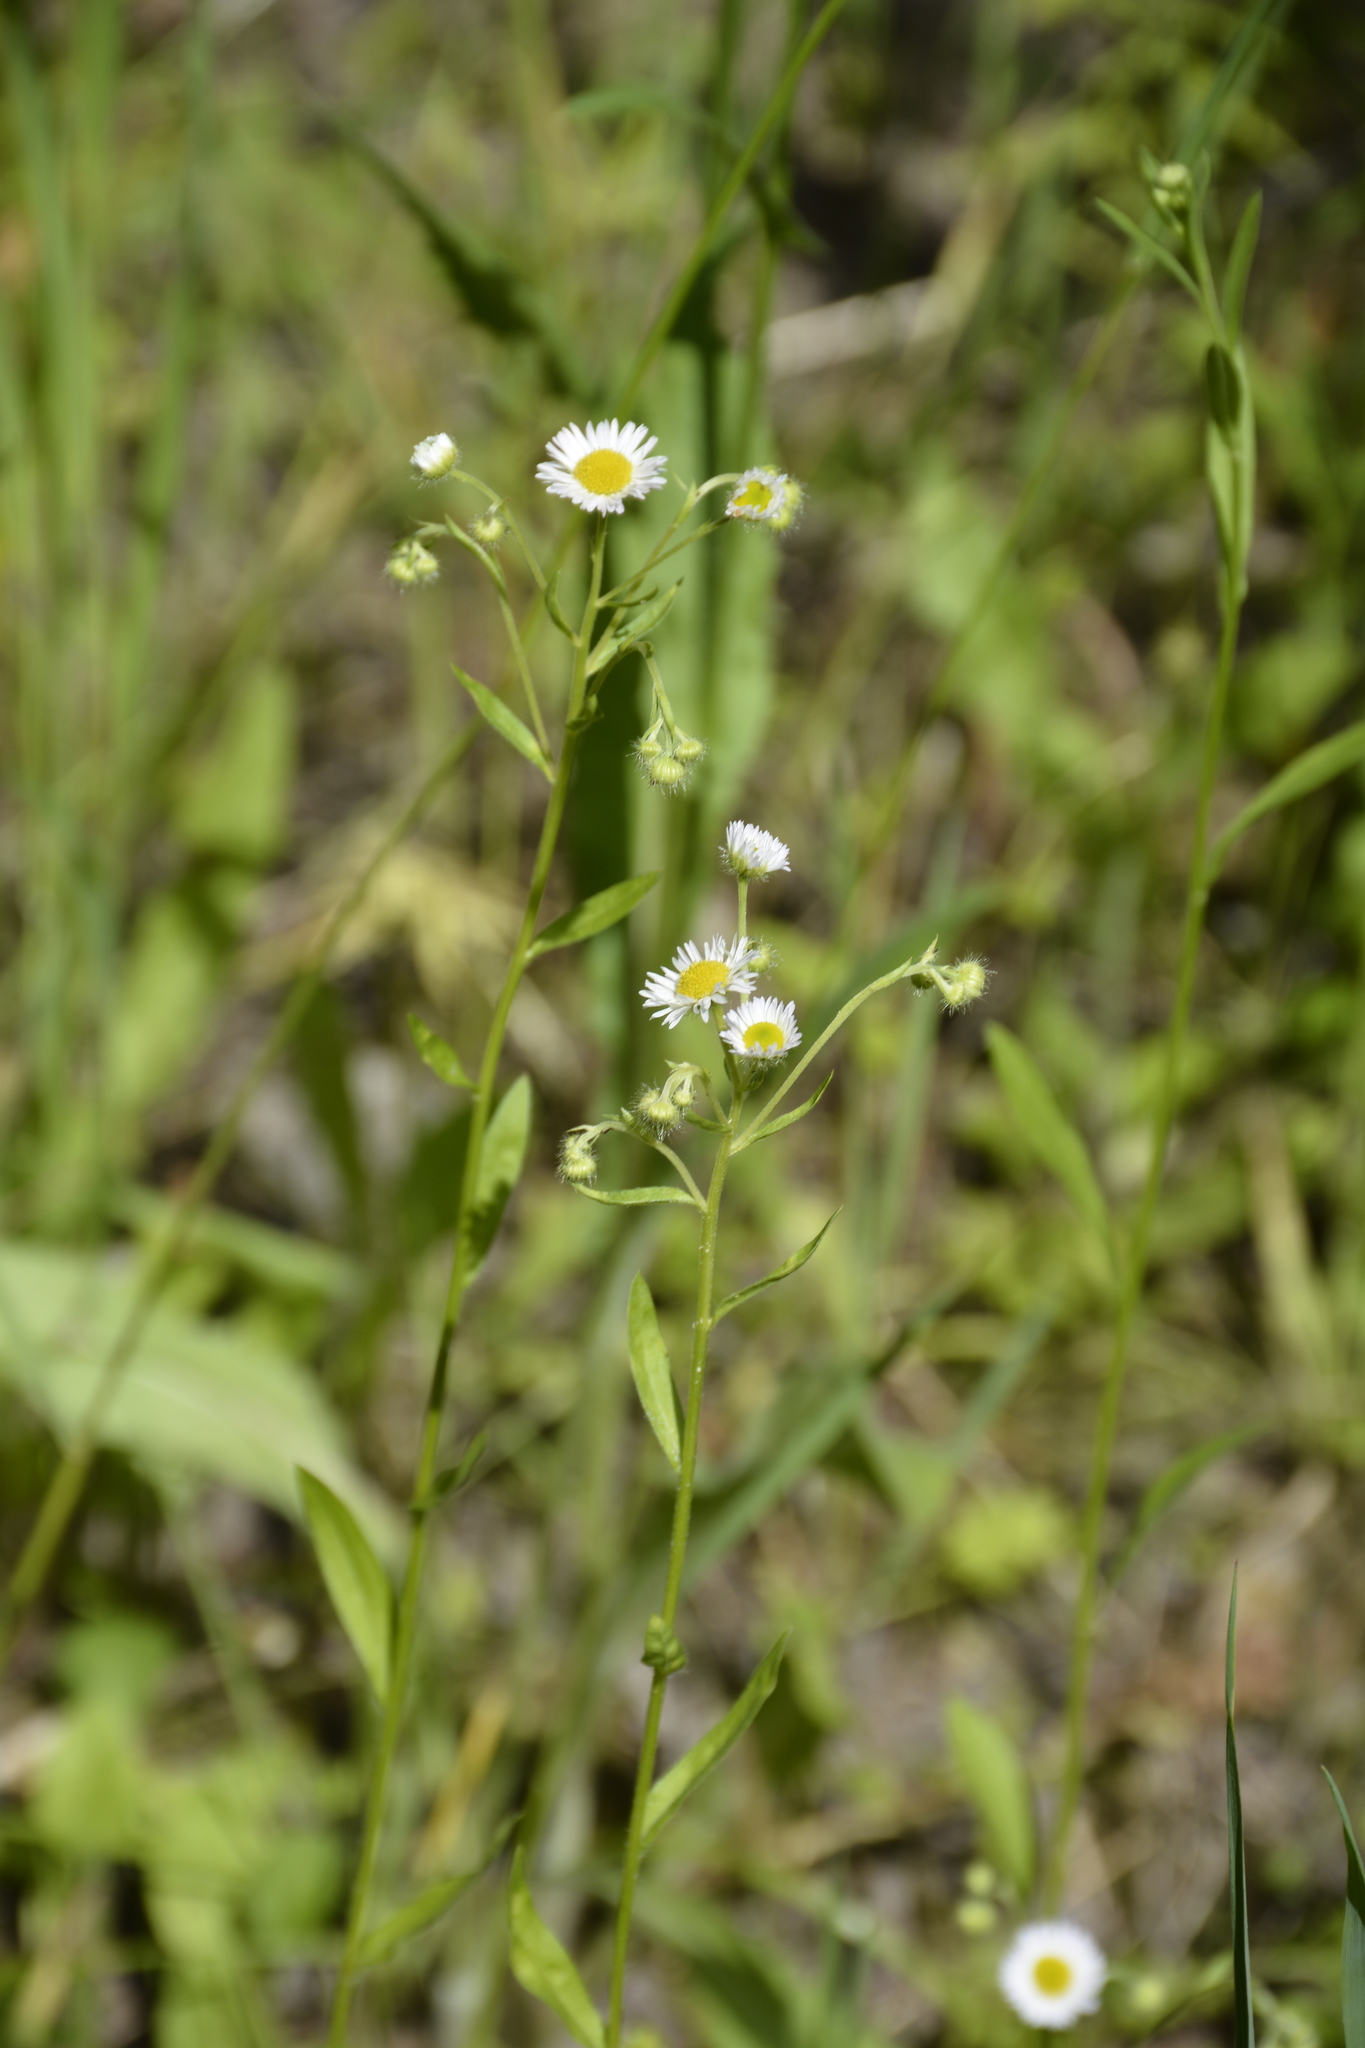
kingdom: Plantae
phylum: Tracheophyta
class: Magnoliopsida
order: Asterales
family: Asteraceae
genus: Erigeron
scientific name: Erigeron strigosus
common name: Common eastern fleabane
